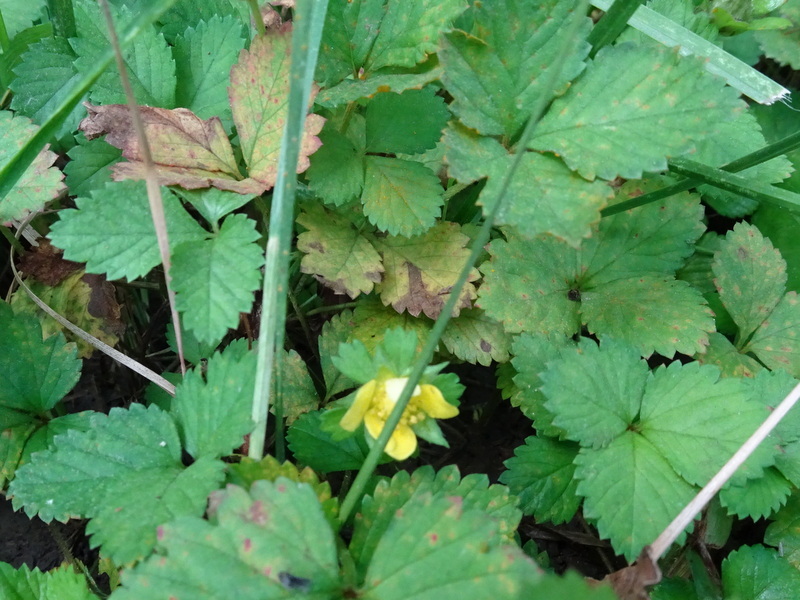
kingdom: Plantae
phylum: Tracheophyta
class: Magnoliopsida
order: Rosales
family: Rosaceae
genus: Potentilla
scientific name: Potentilla indica
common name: Yellow-flowered strawberry
